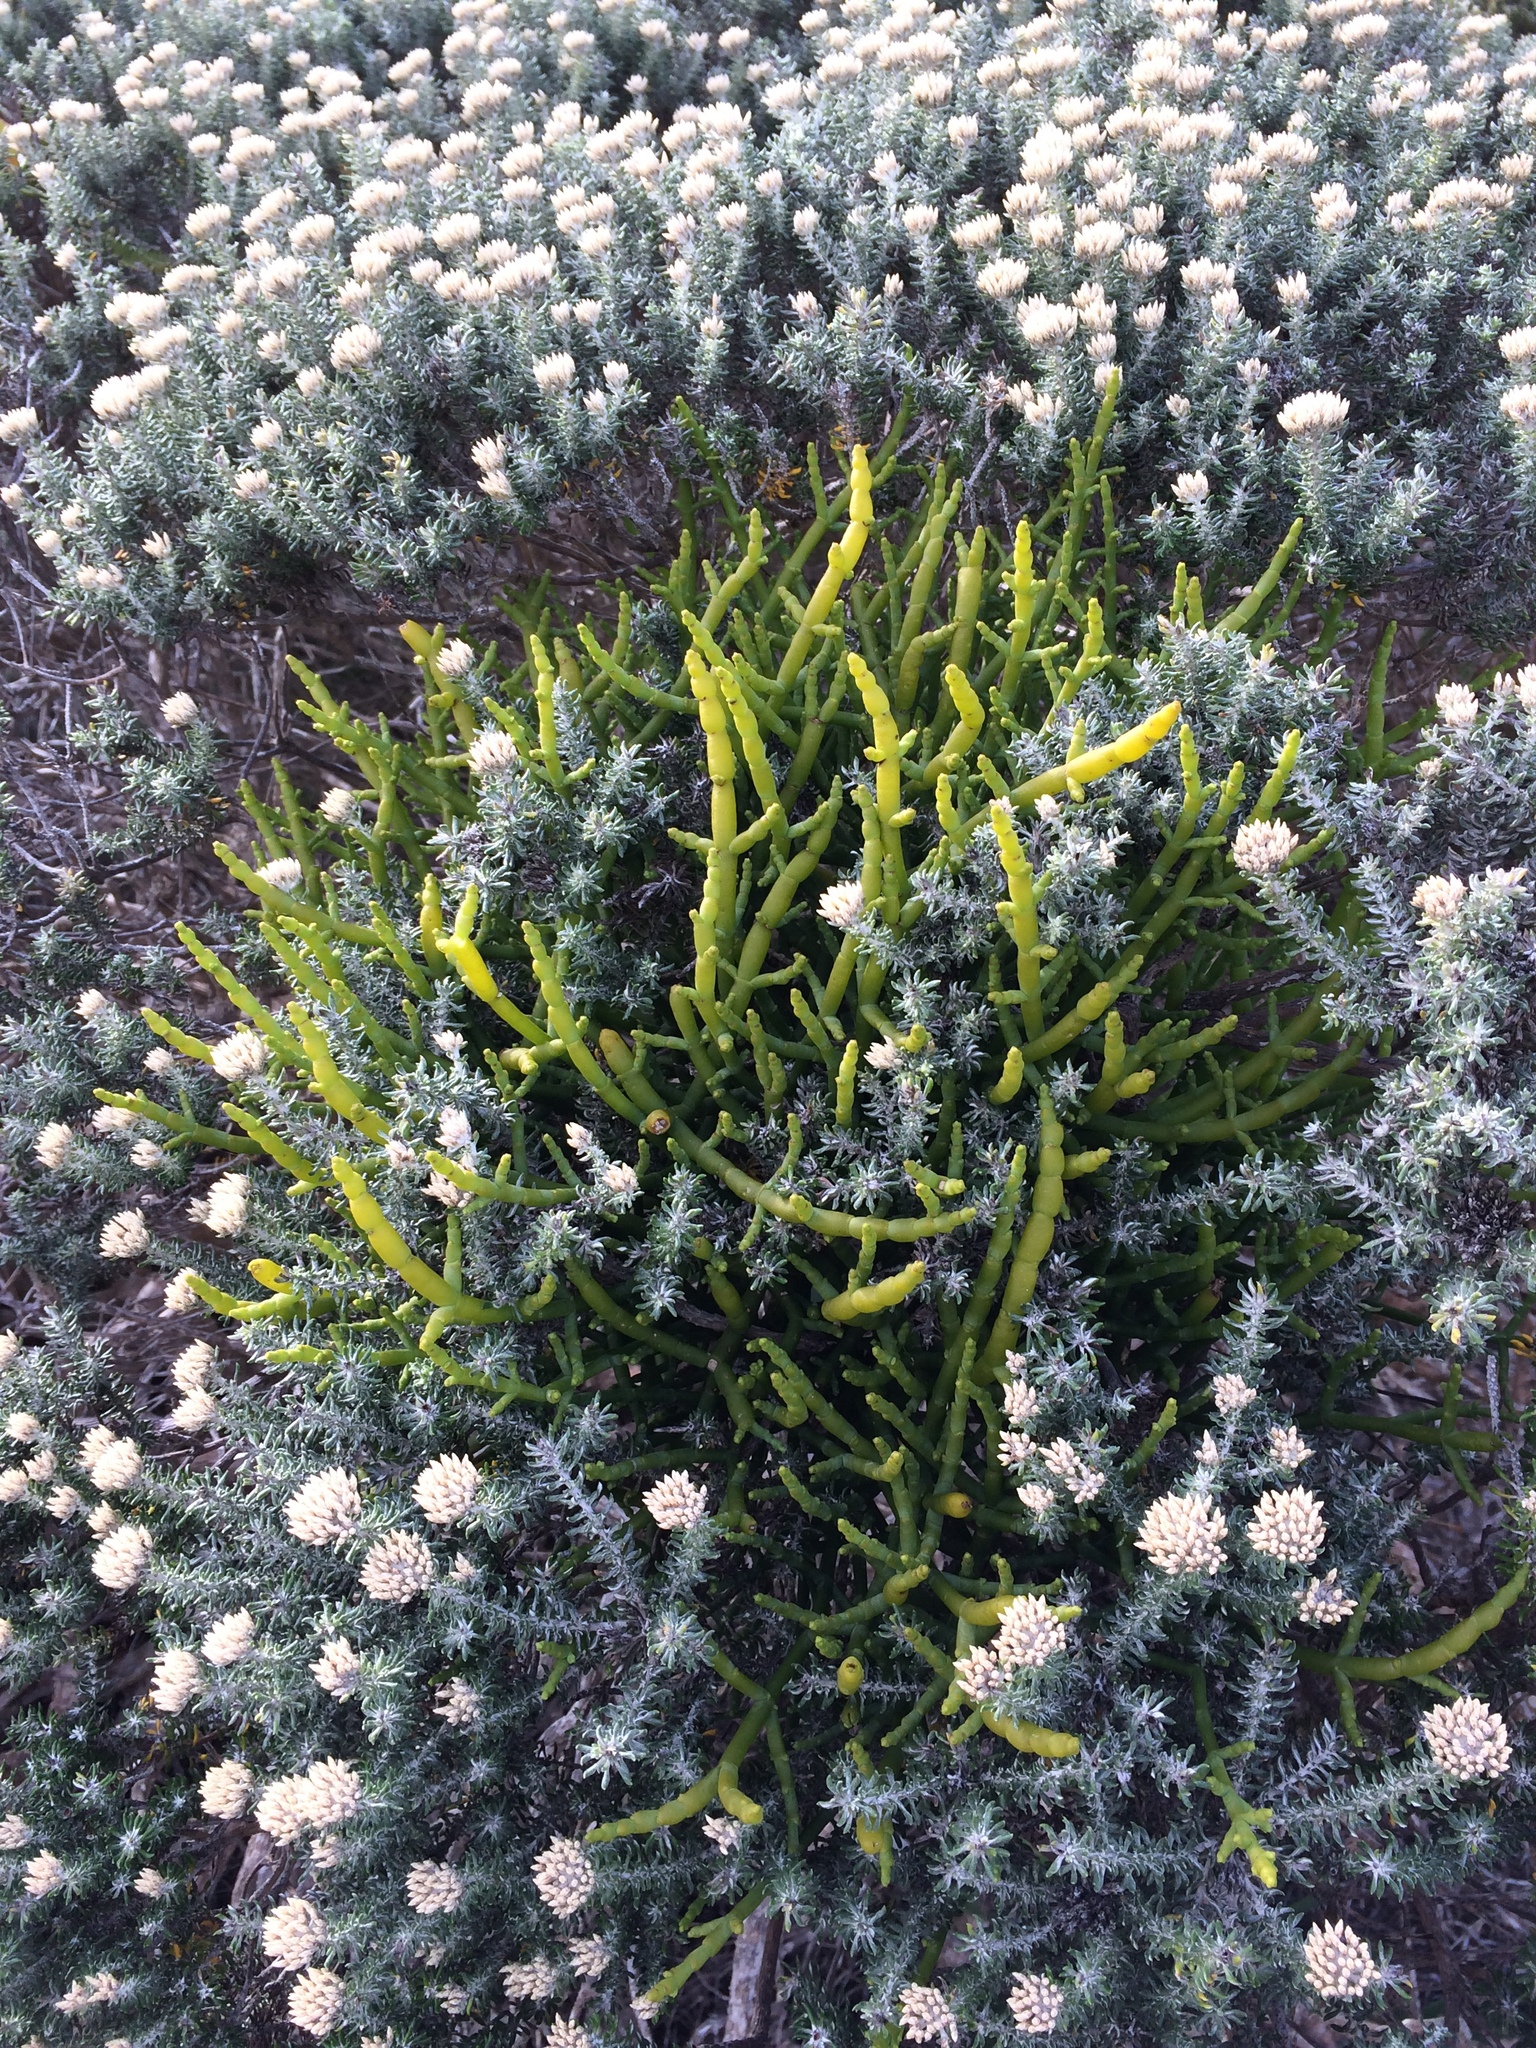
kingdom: Plantae
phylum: Tracheophyta
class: Magnoliopsida
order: Santalales
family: Viscaceae
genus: Viscum
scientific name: Viscum capense
